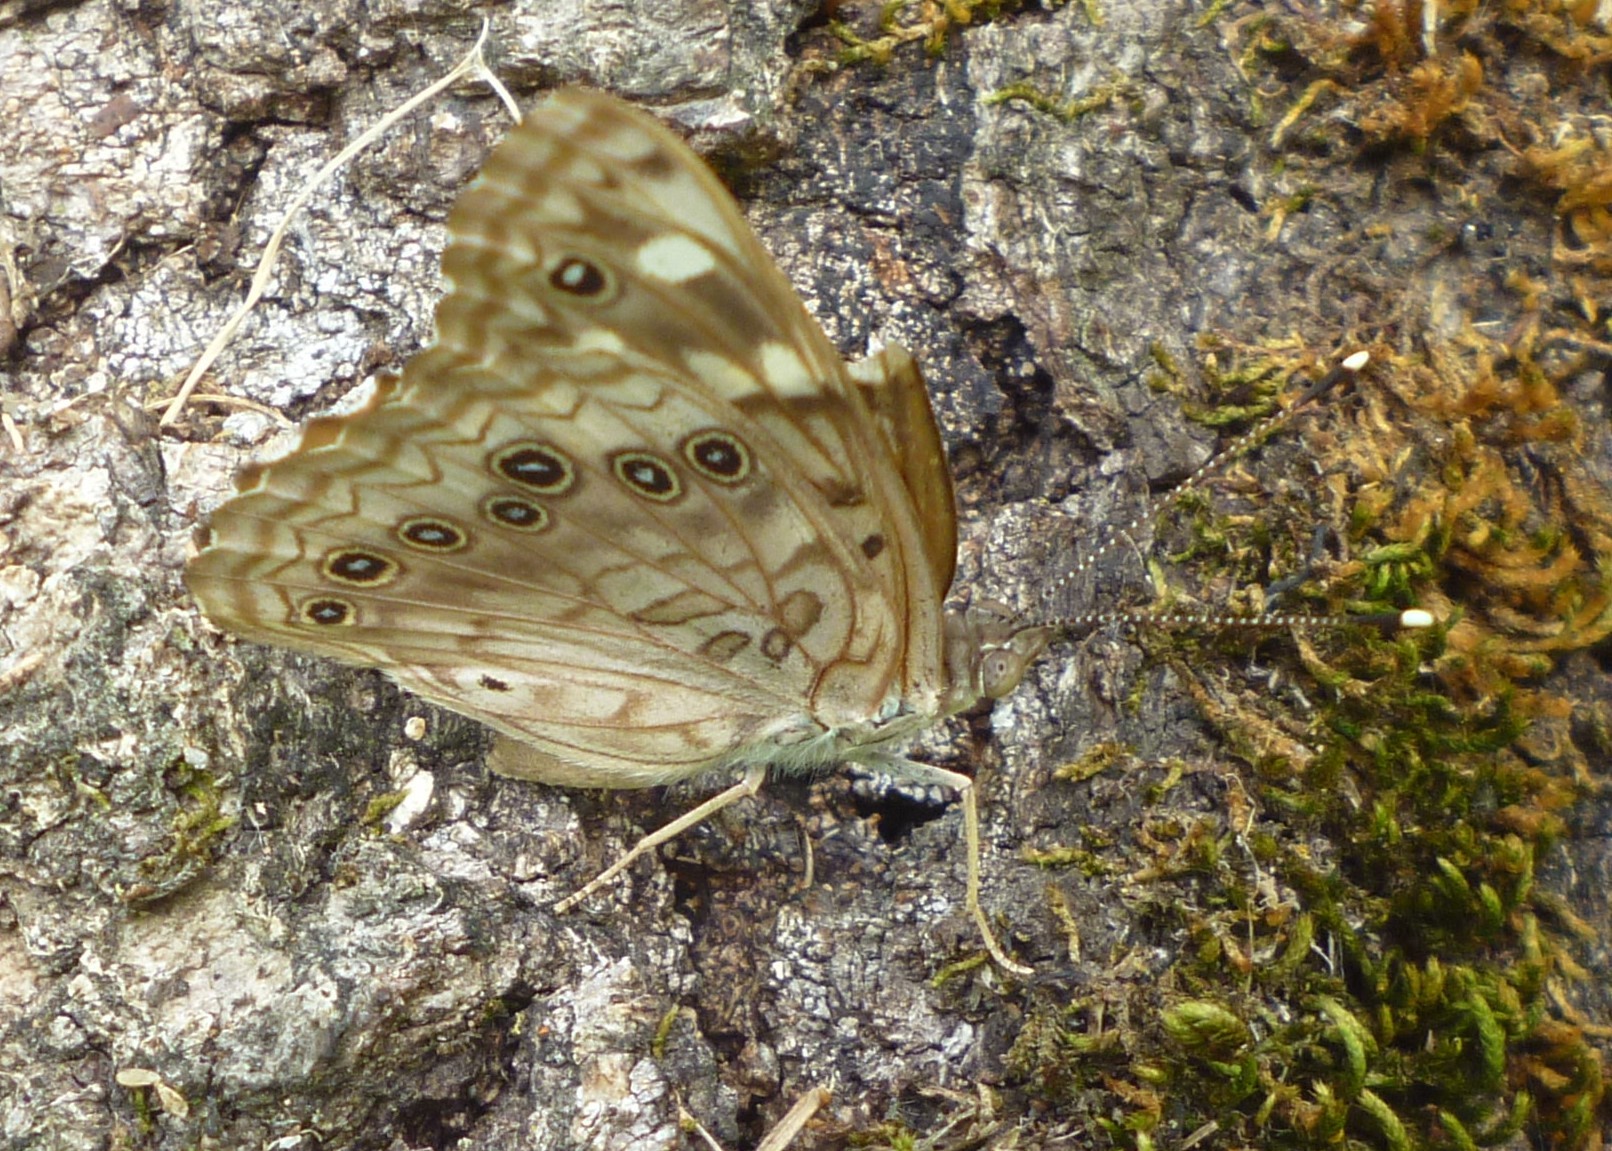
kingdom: Animalia
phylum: Arthropoda
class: Insecta
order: Lepidoptera
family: Nymphalidae
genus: Asterocampa
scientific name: Asterocampa celtis
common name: Hackberry emperor
